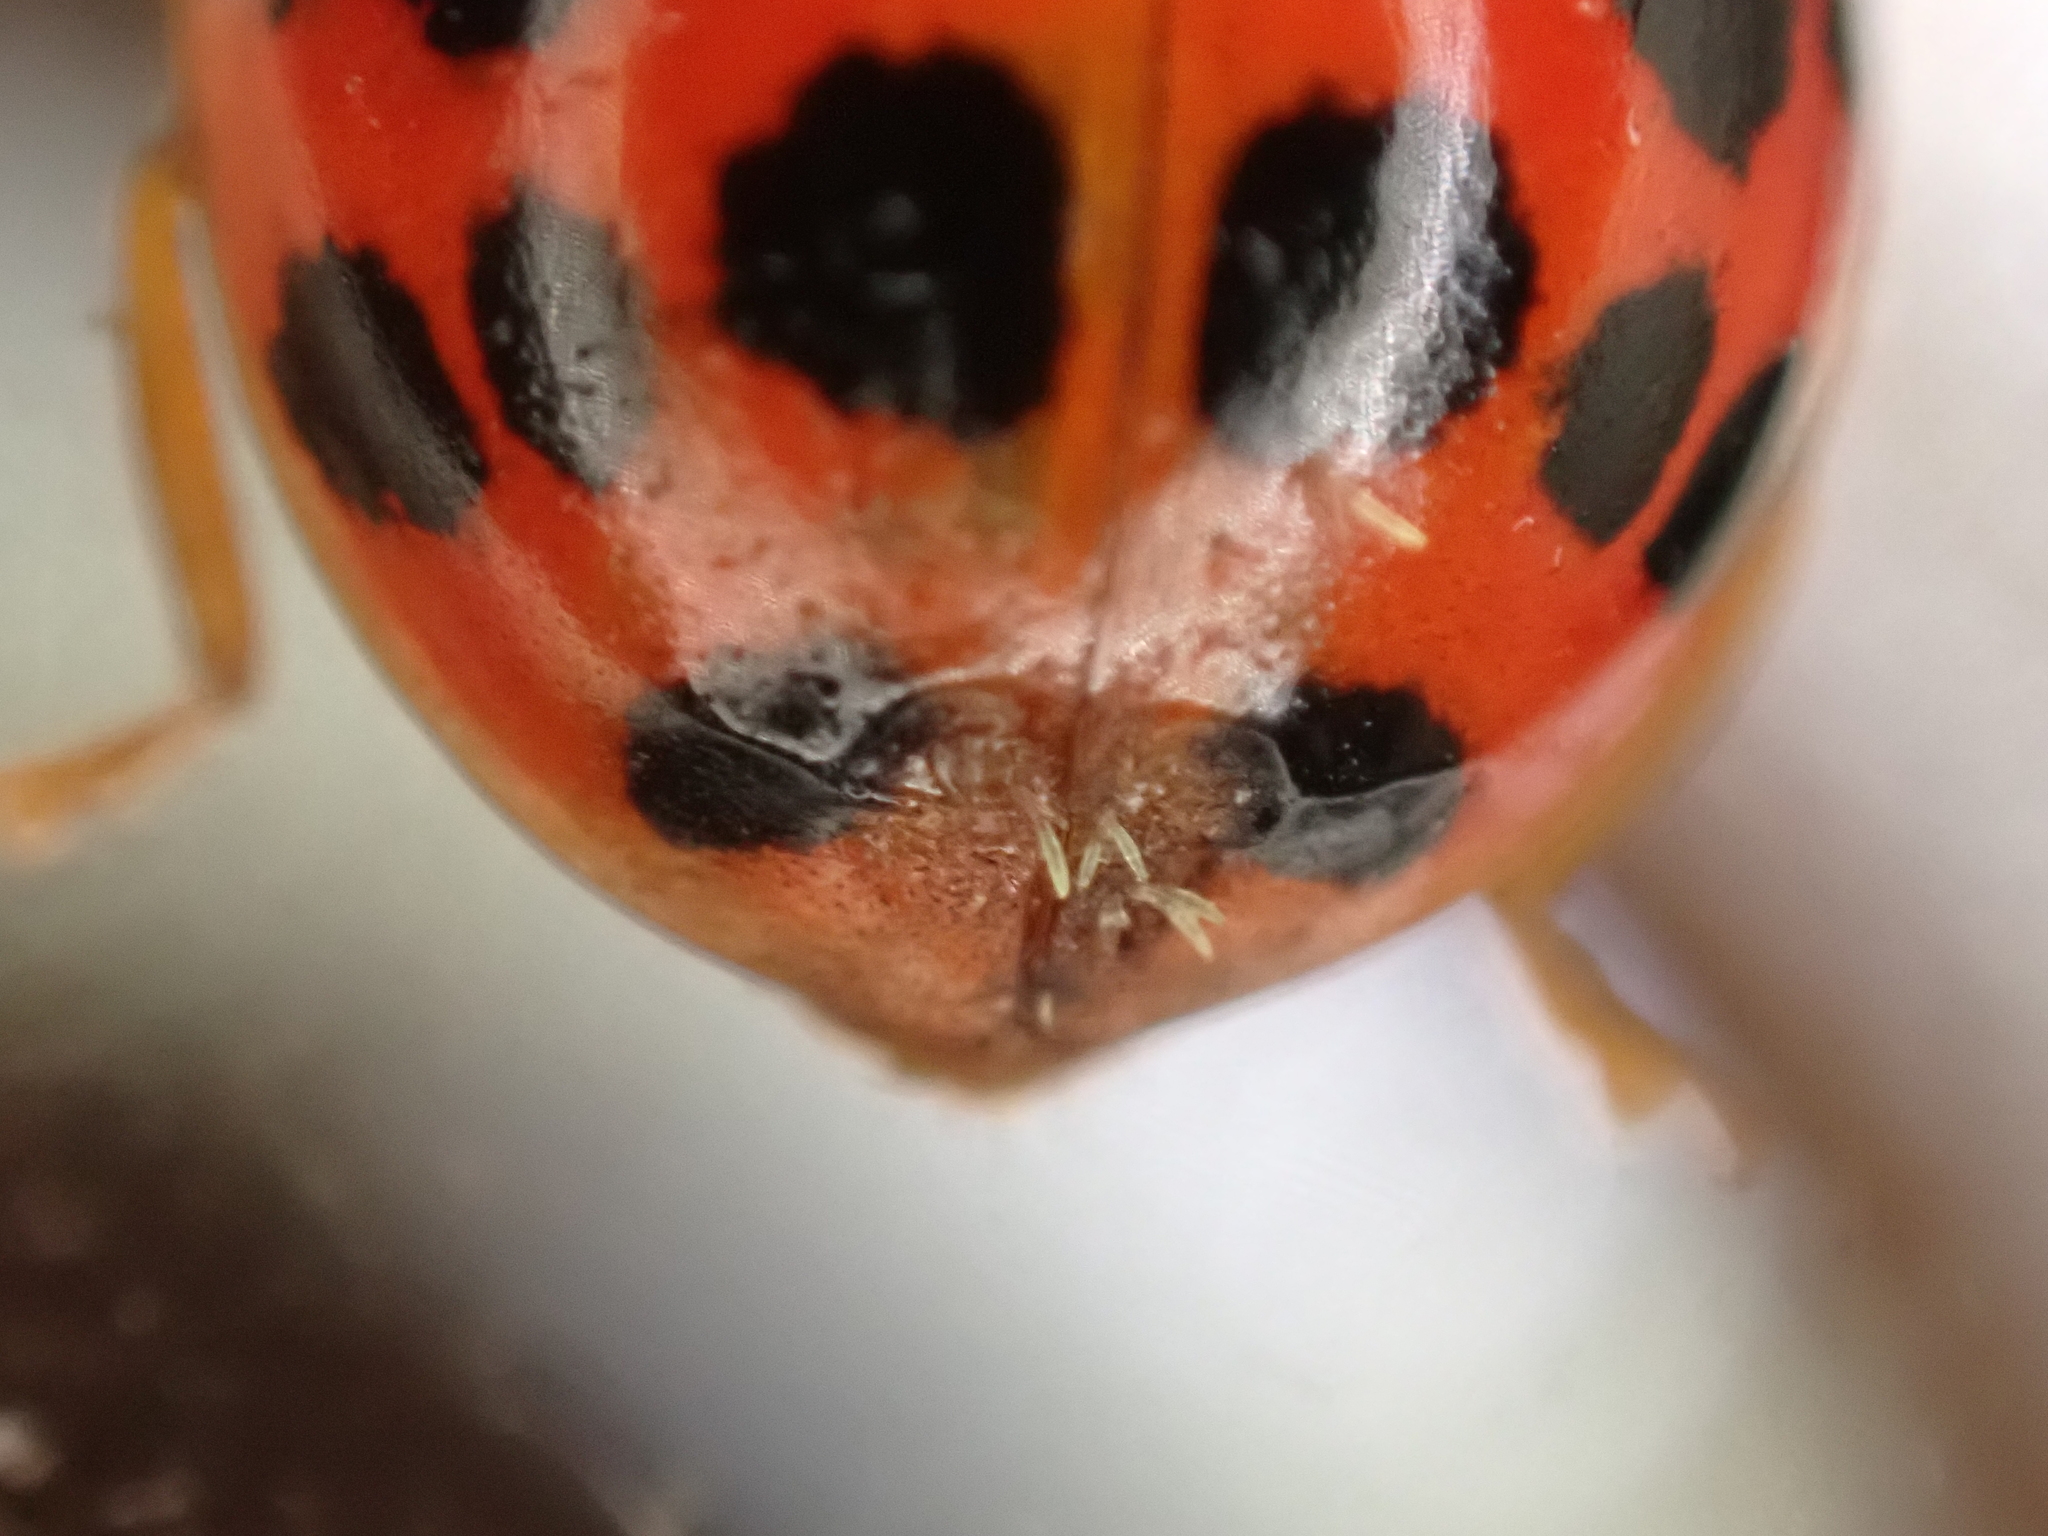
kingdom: Fungi
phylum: Ascomycota
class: Laboulbeniomycetes
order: Laboulbeniales
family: Laboulbeniaceae
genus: Hesperomyces
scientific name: Hesperomyces harmoniae
